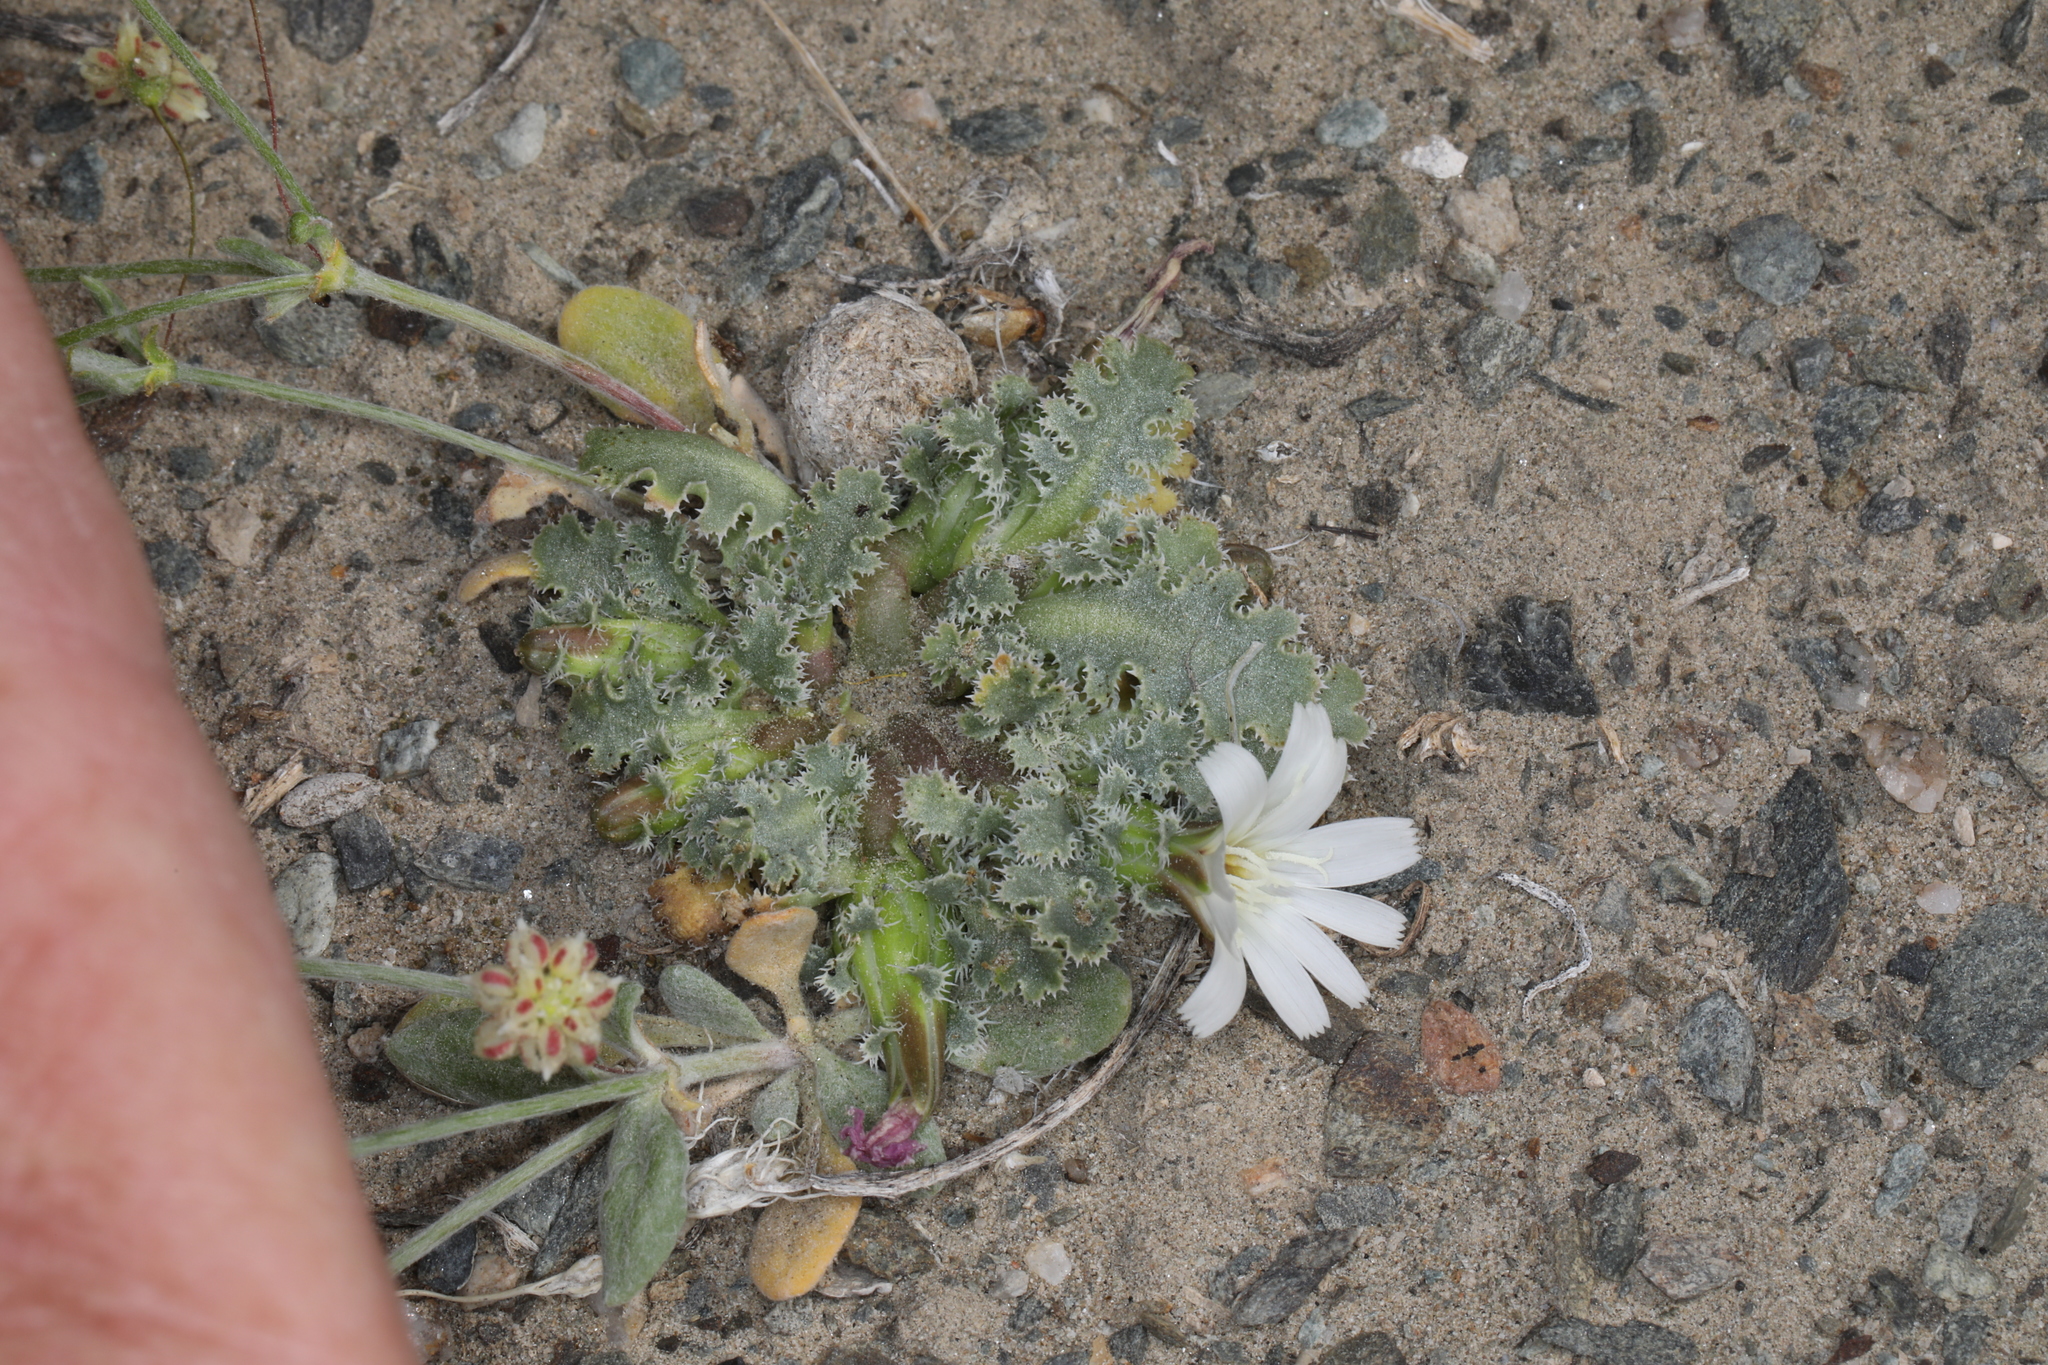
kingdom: Plantae
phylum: Tracheophyta
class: Magnoliopsida
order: Asterales
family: Asteraceae
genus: Glyptopleura
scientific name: Glyptopleura marginata
